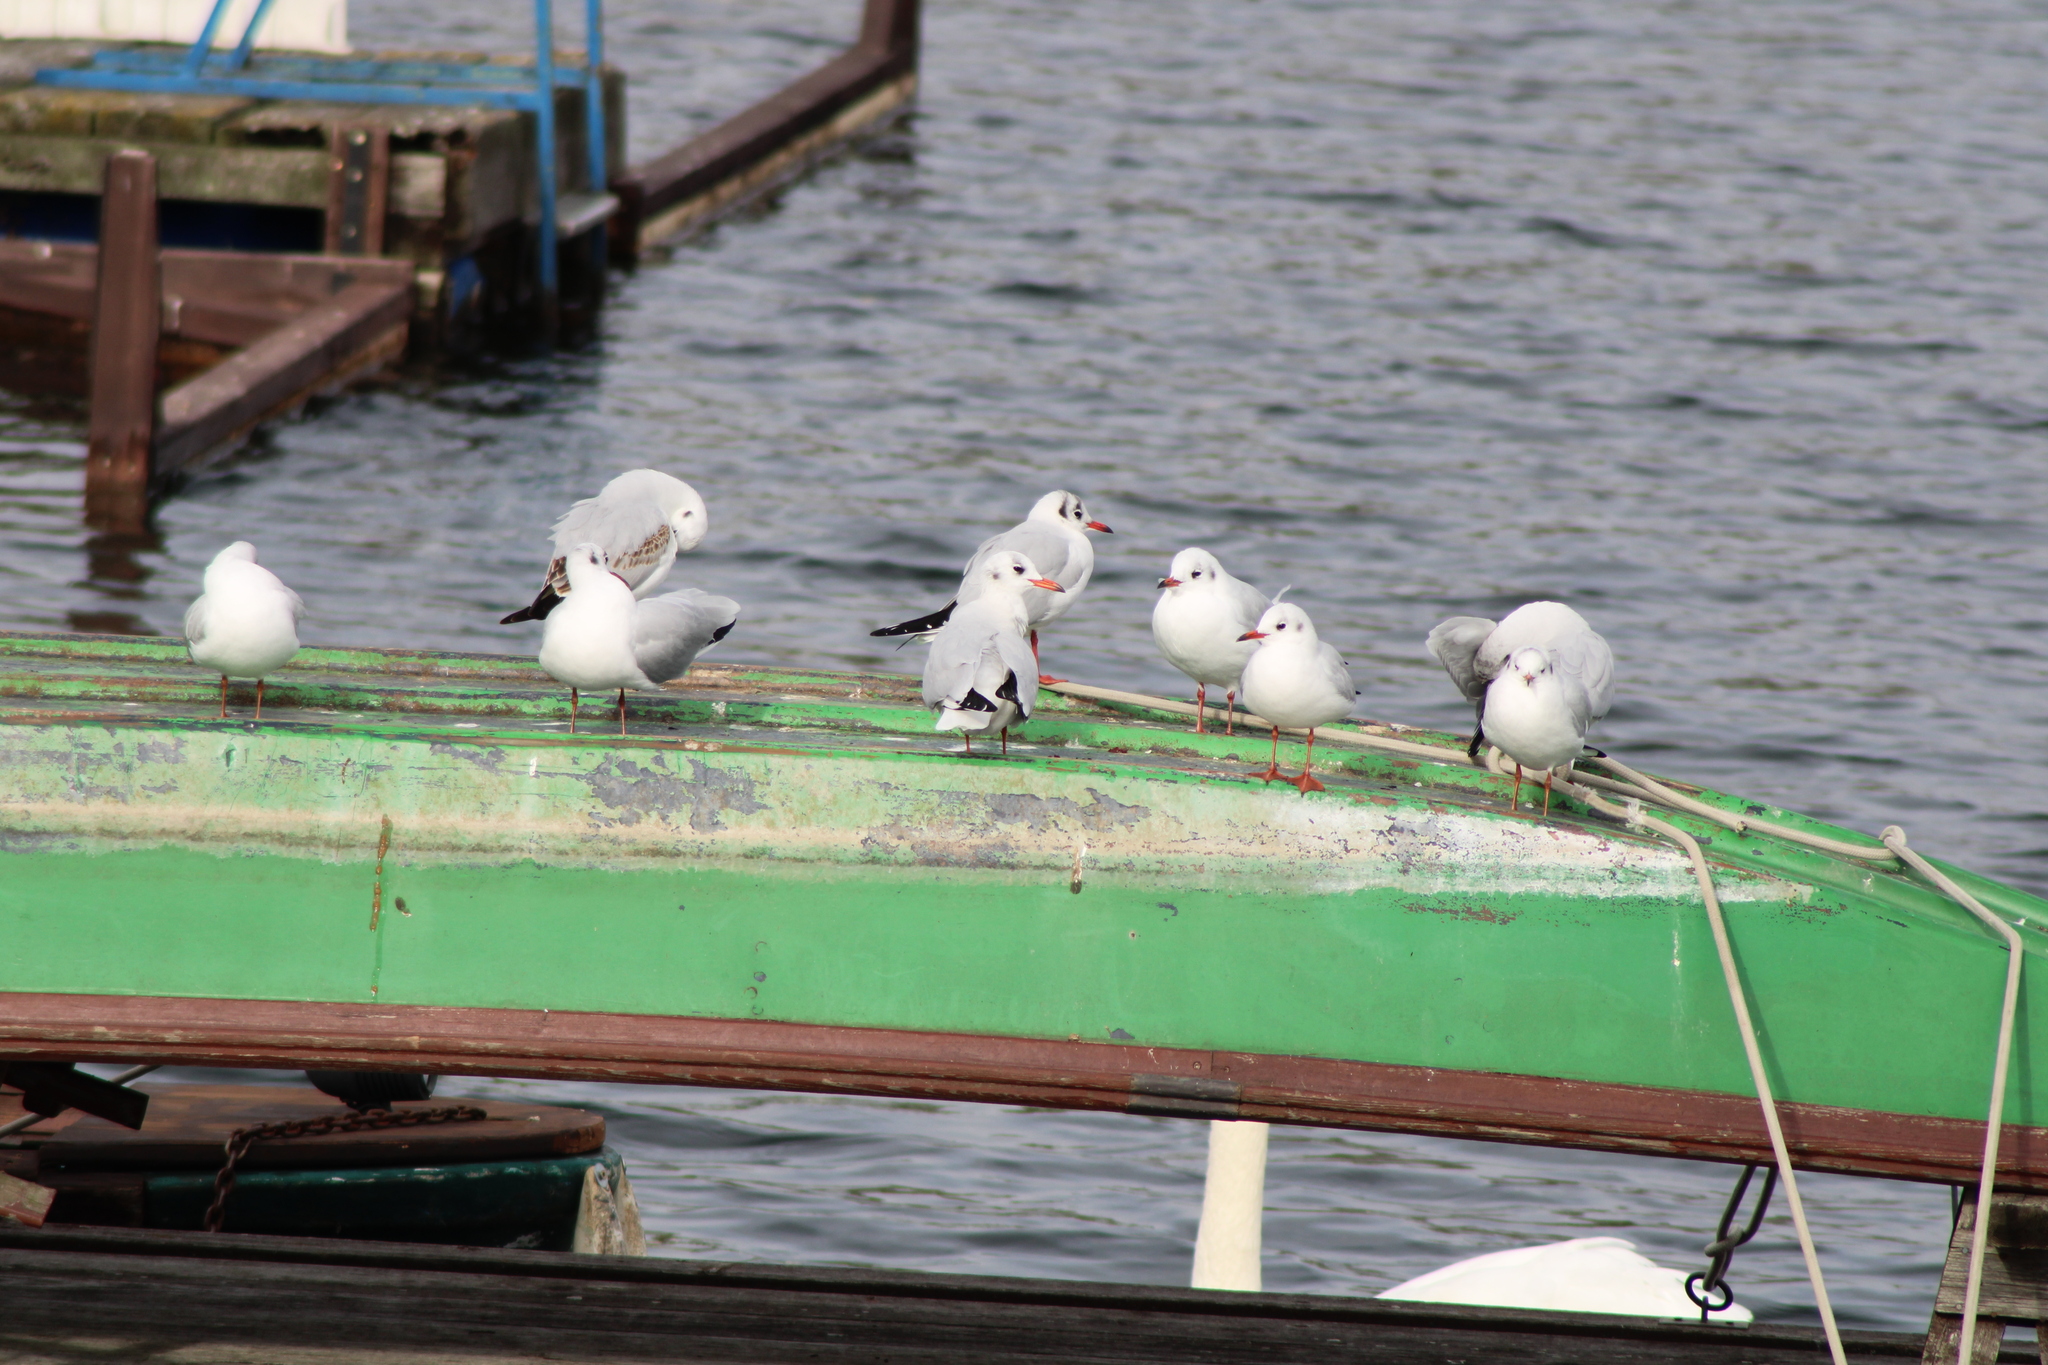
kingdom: Animalia
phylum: Chordata
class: Aves
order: Charadriiformes
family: Laridae
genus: Chroicocephalus
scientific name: Chroicocephalus ridibundus
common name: Black-headed gull
